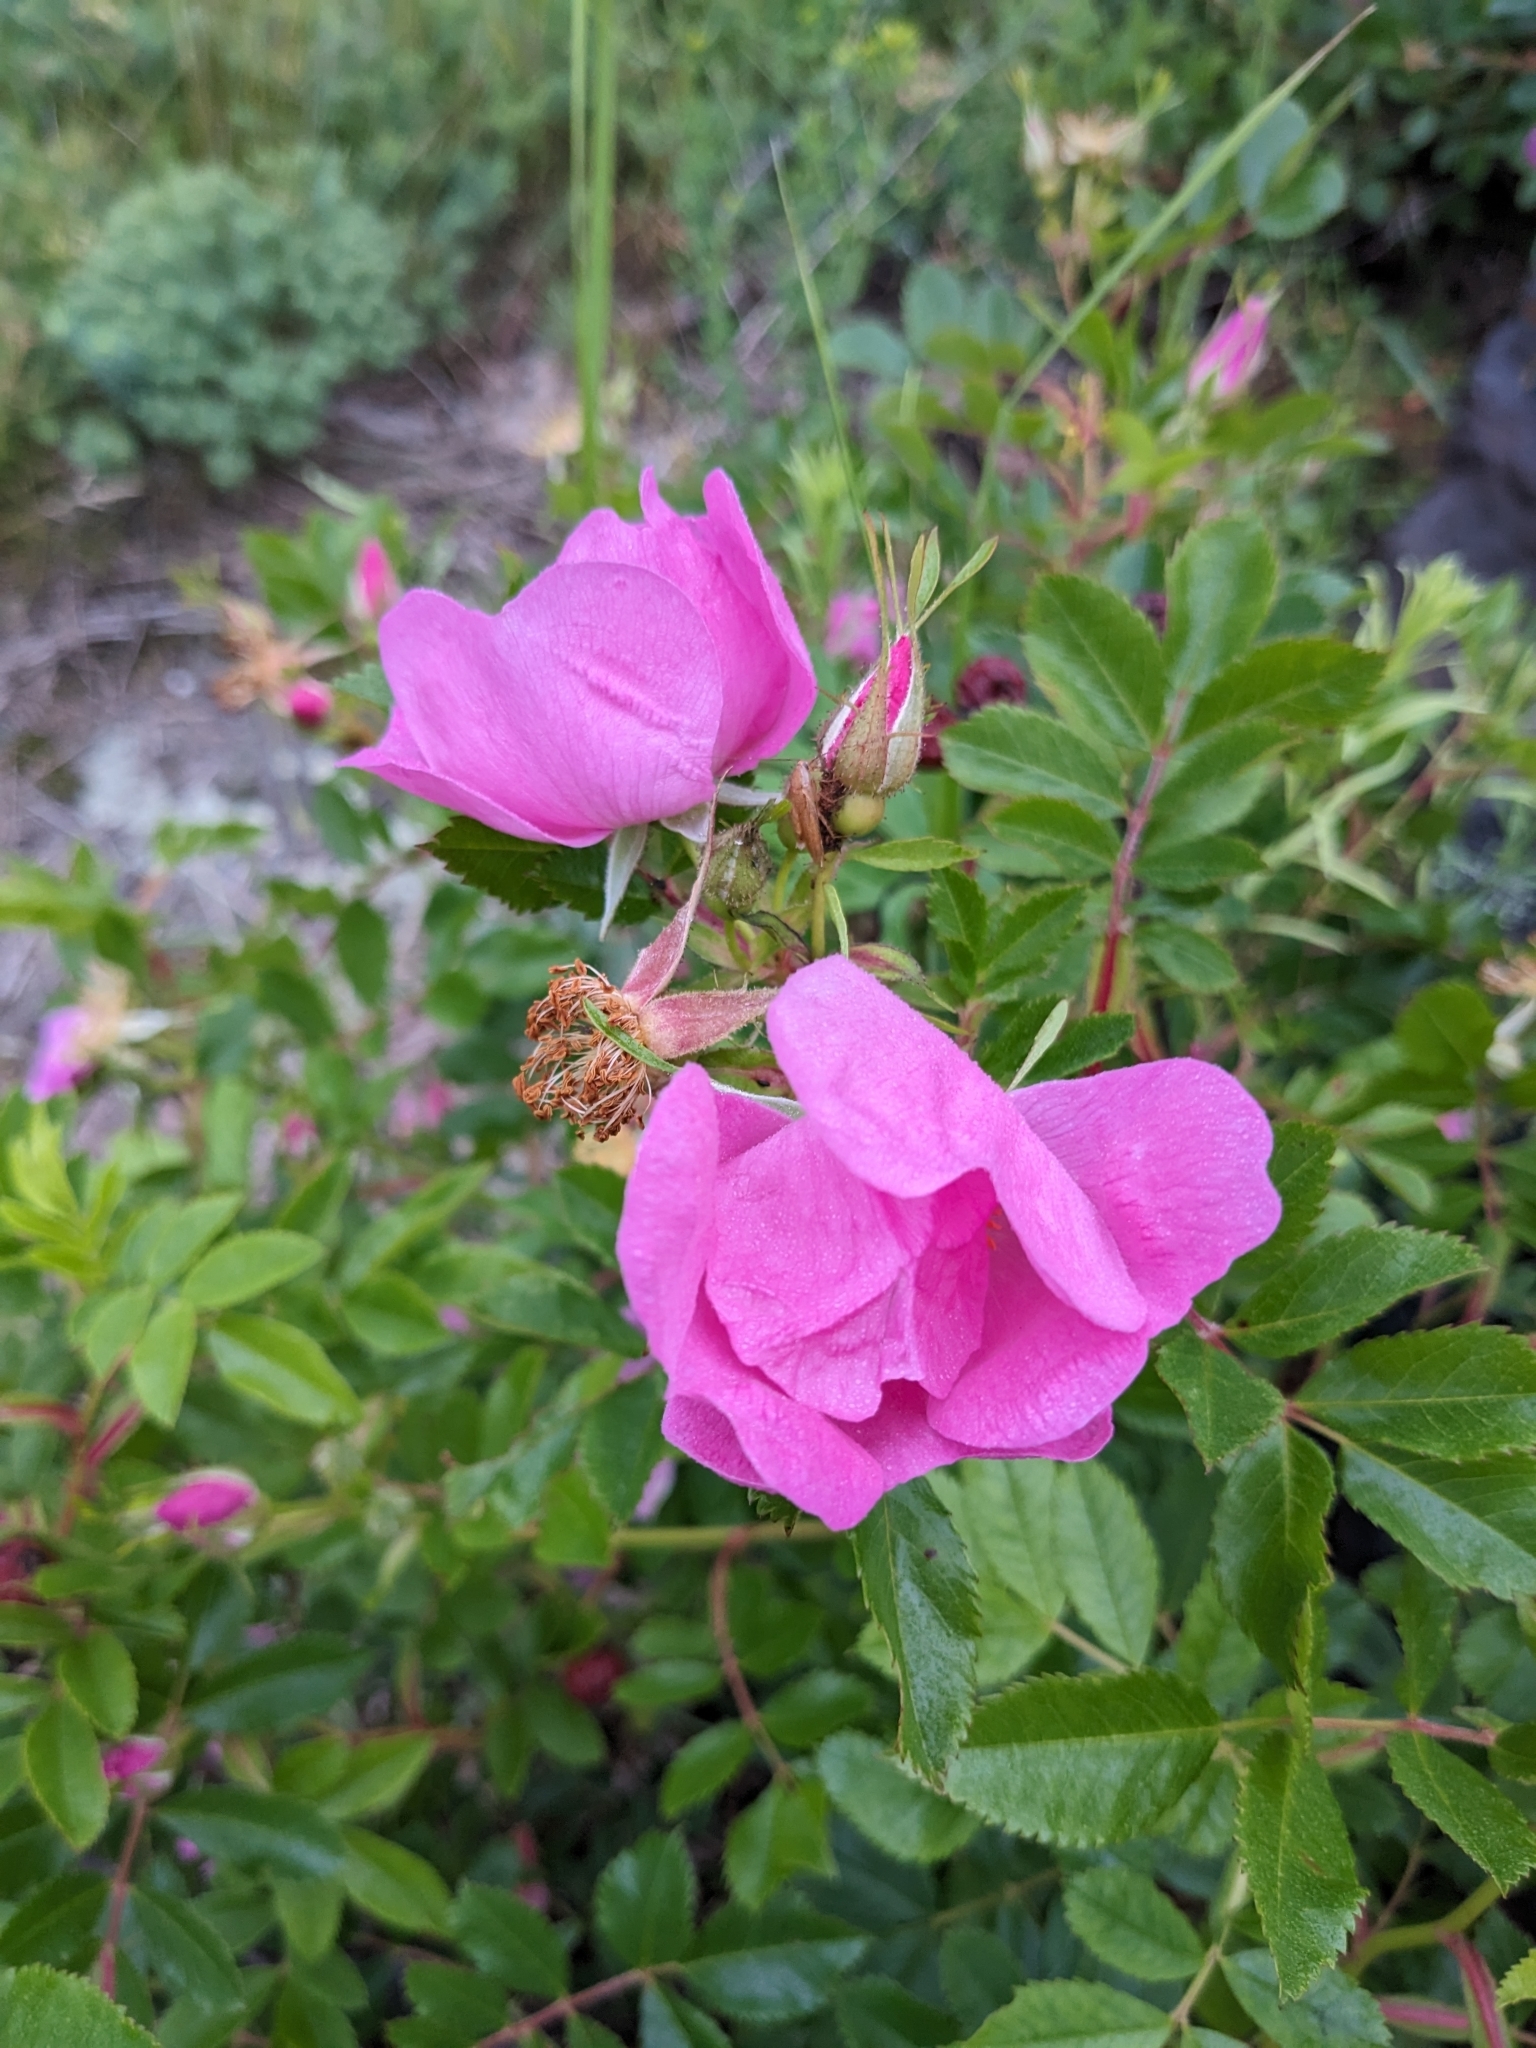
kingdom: Plantae
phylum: Tracheophyta
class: Magnoliopsida
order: Rosales
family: Rosaceae
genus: Rosa
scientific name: Rosa rugosa
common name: Japanese rose
